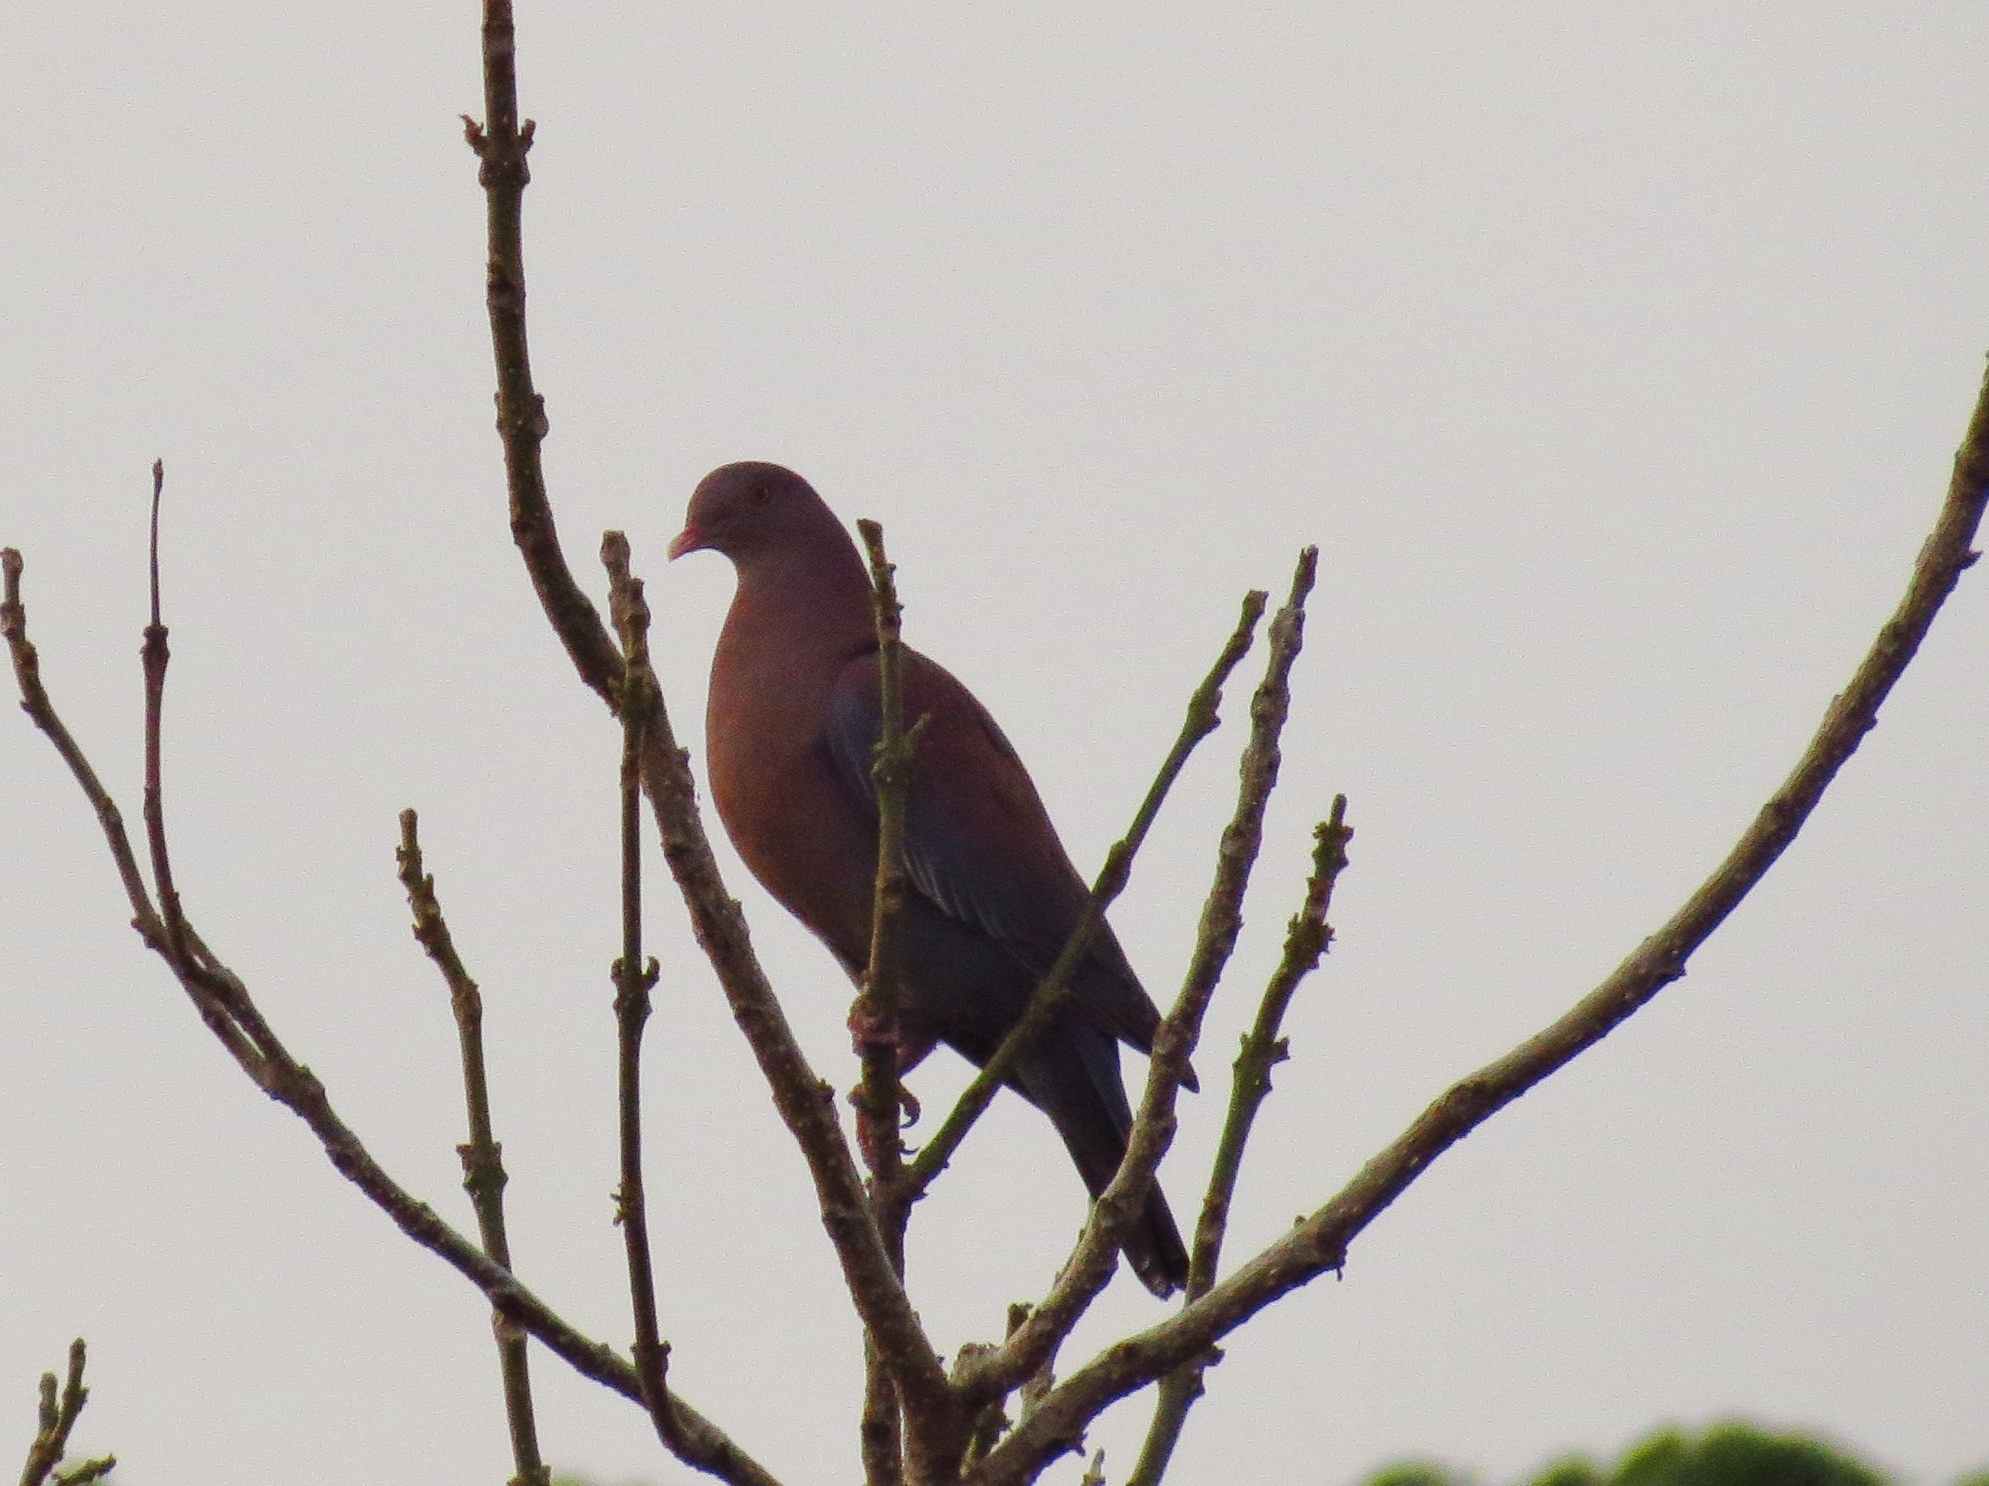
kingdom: Animalia
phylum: Chordata
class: Aves
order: Columbiformes
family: Columbidae
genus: Patagioenas
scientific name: Patagioenas flavirostris
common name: Red-billed pigeon
